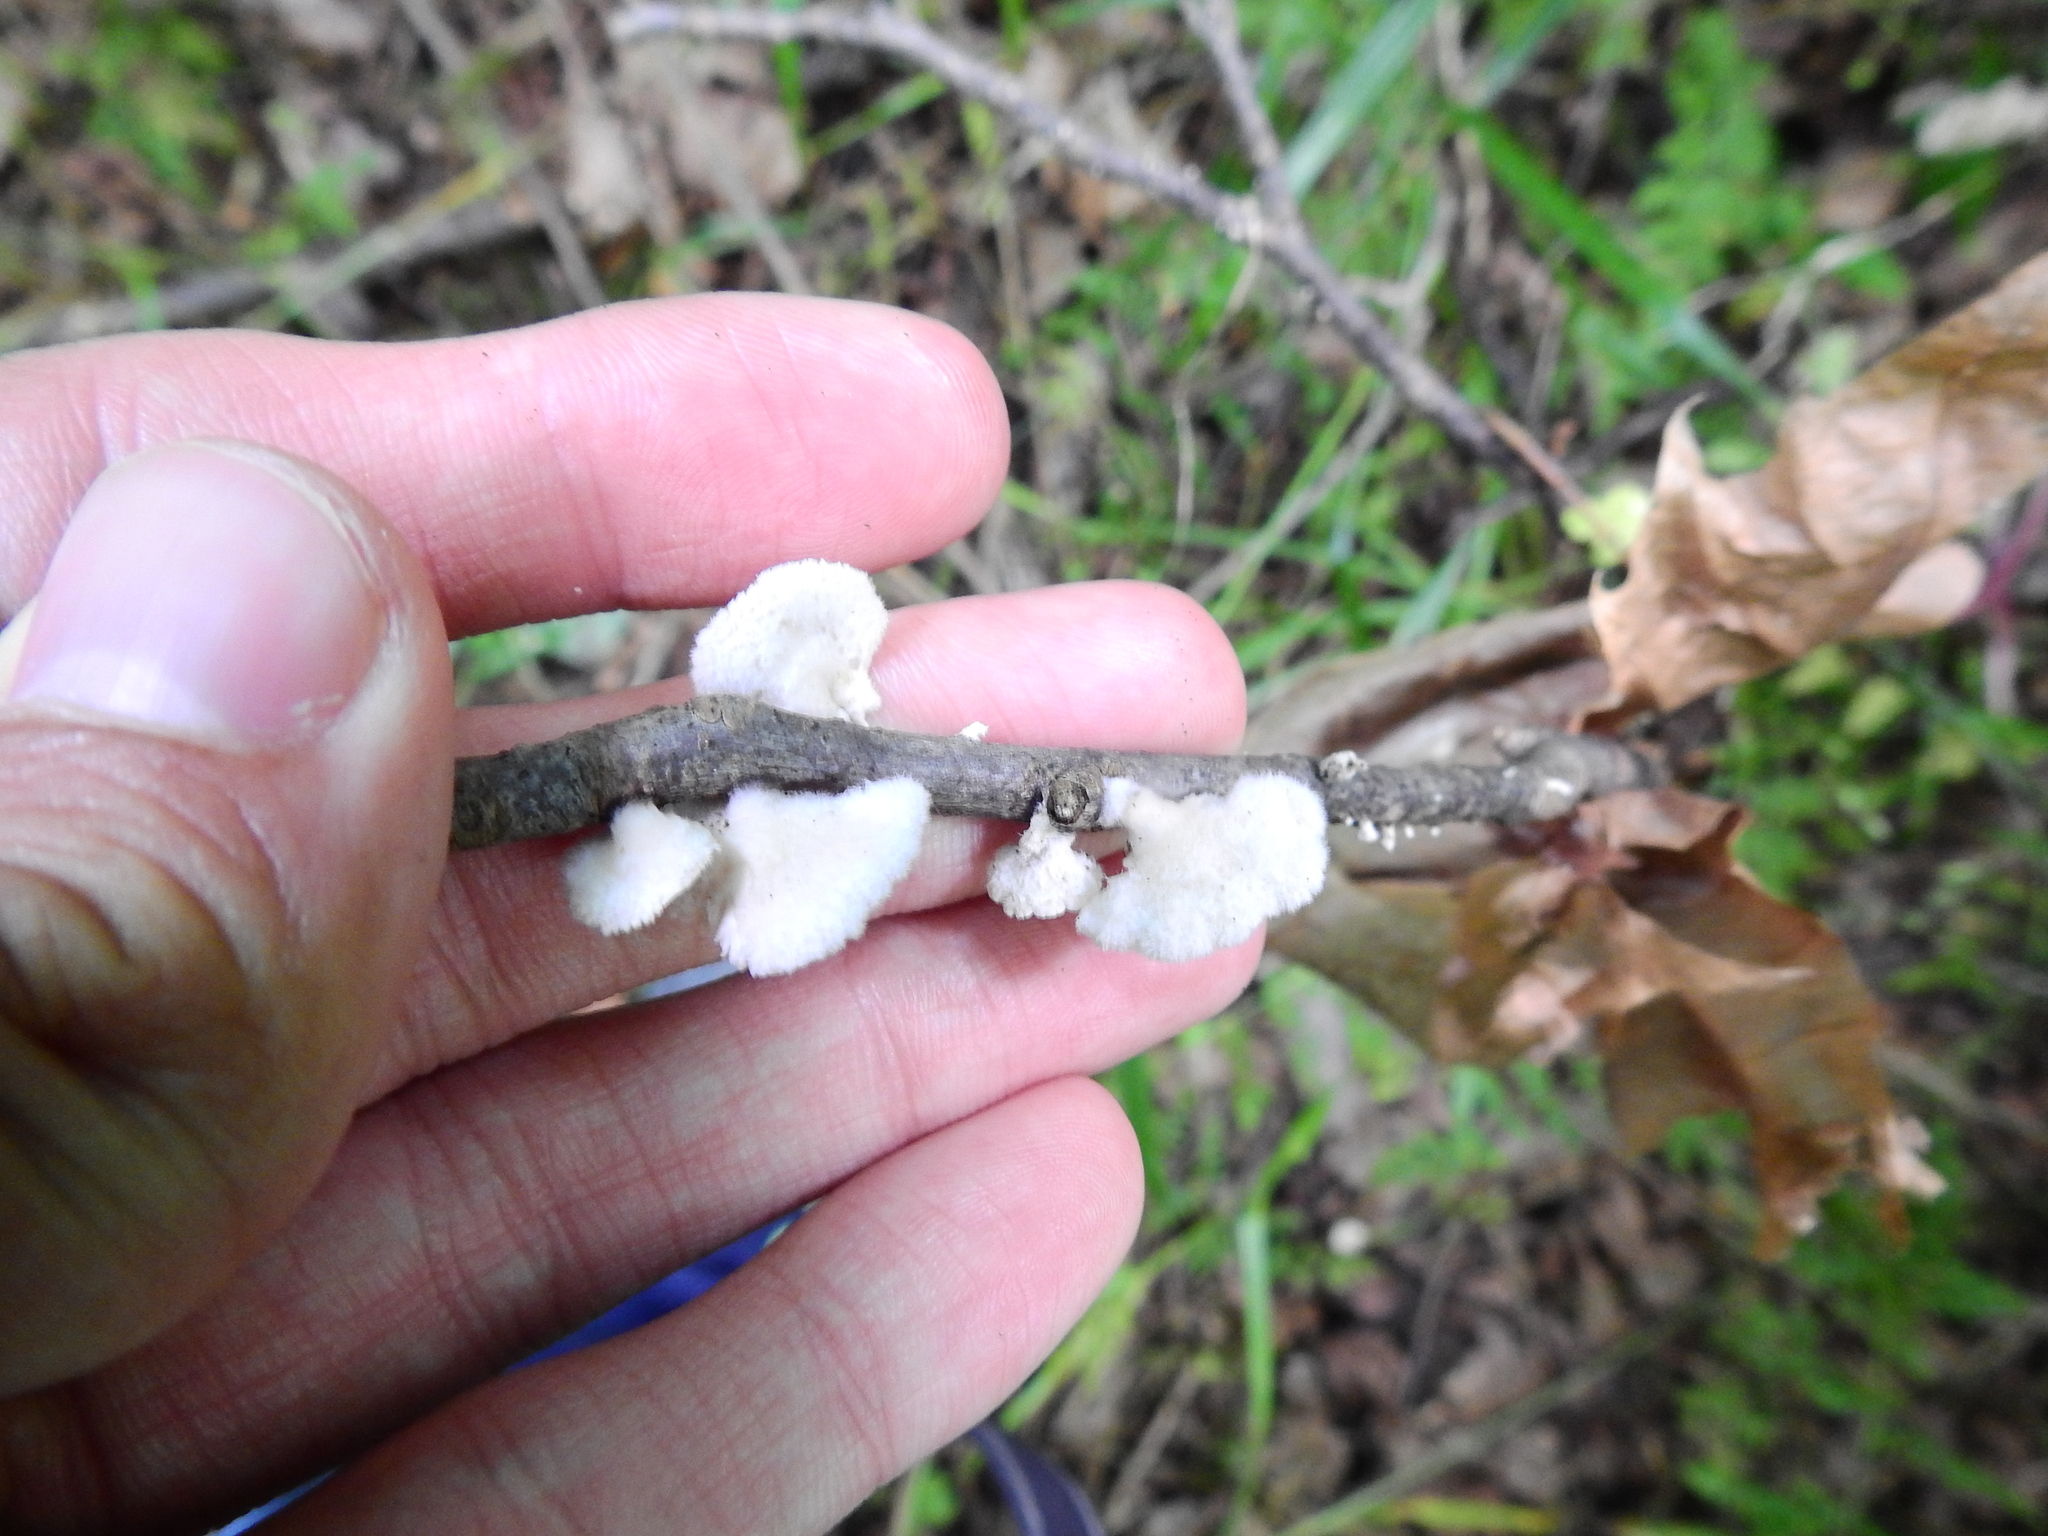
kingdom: Fungi
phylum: Basidiomycota
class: Agaricomycetes
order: Agaricales
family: Schizophyllaceae
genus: Schizophyllum
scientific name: Schizophyllum commune
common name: Common porecrust
